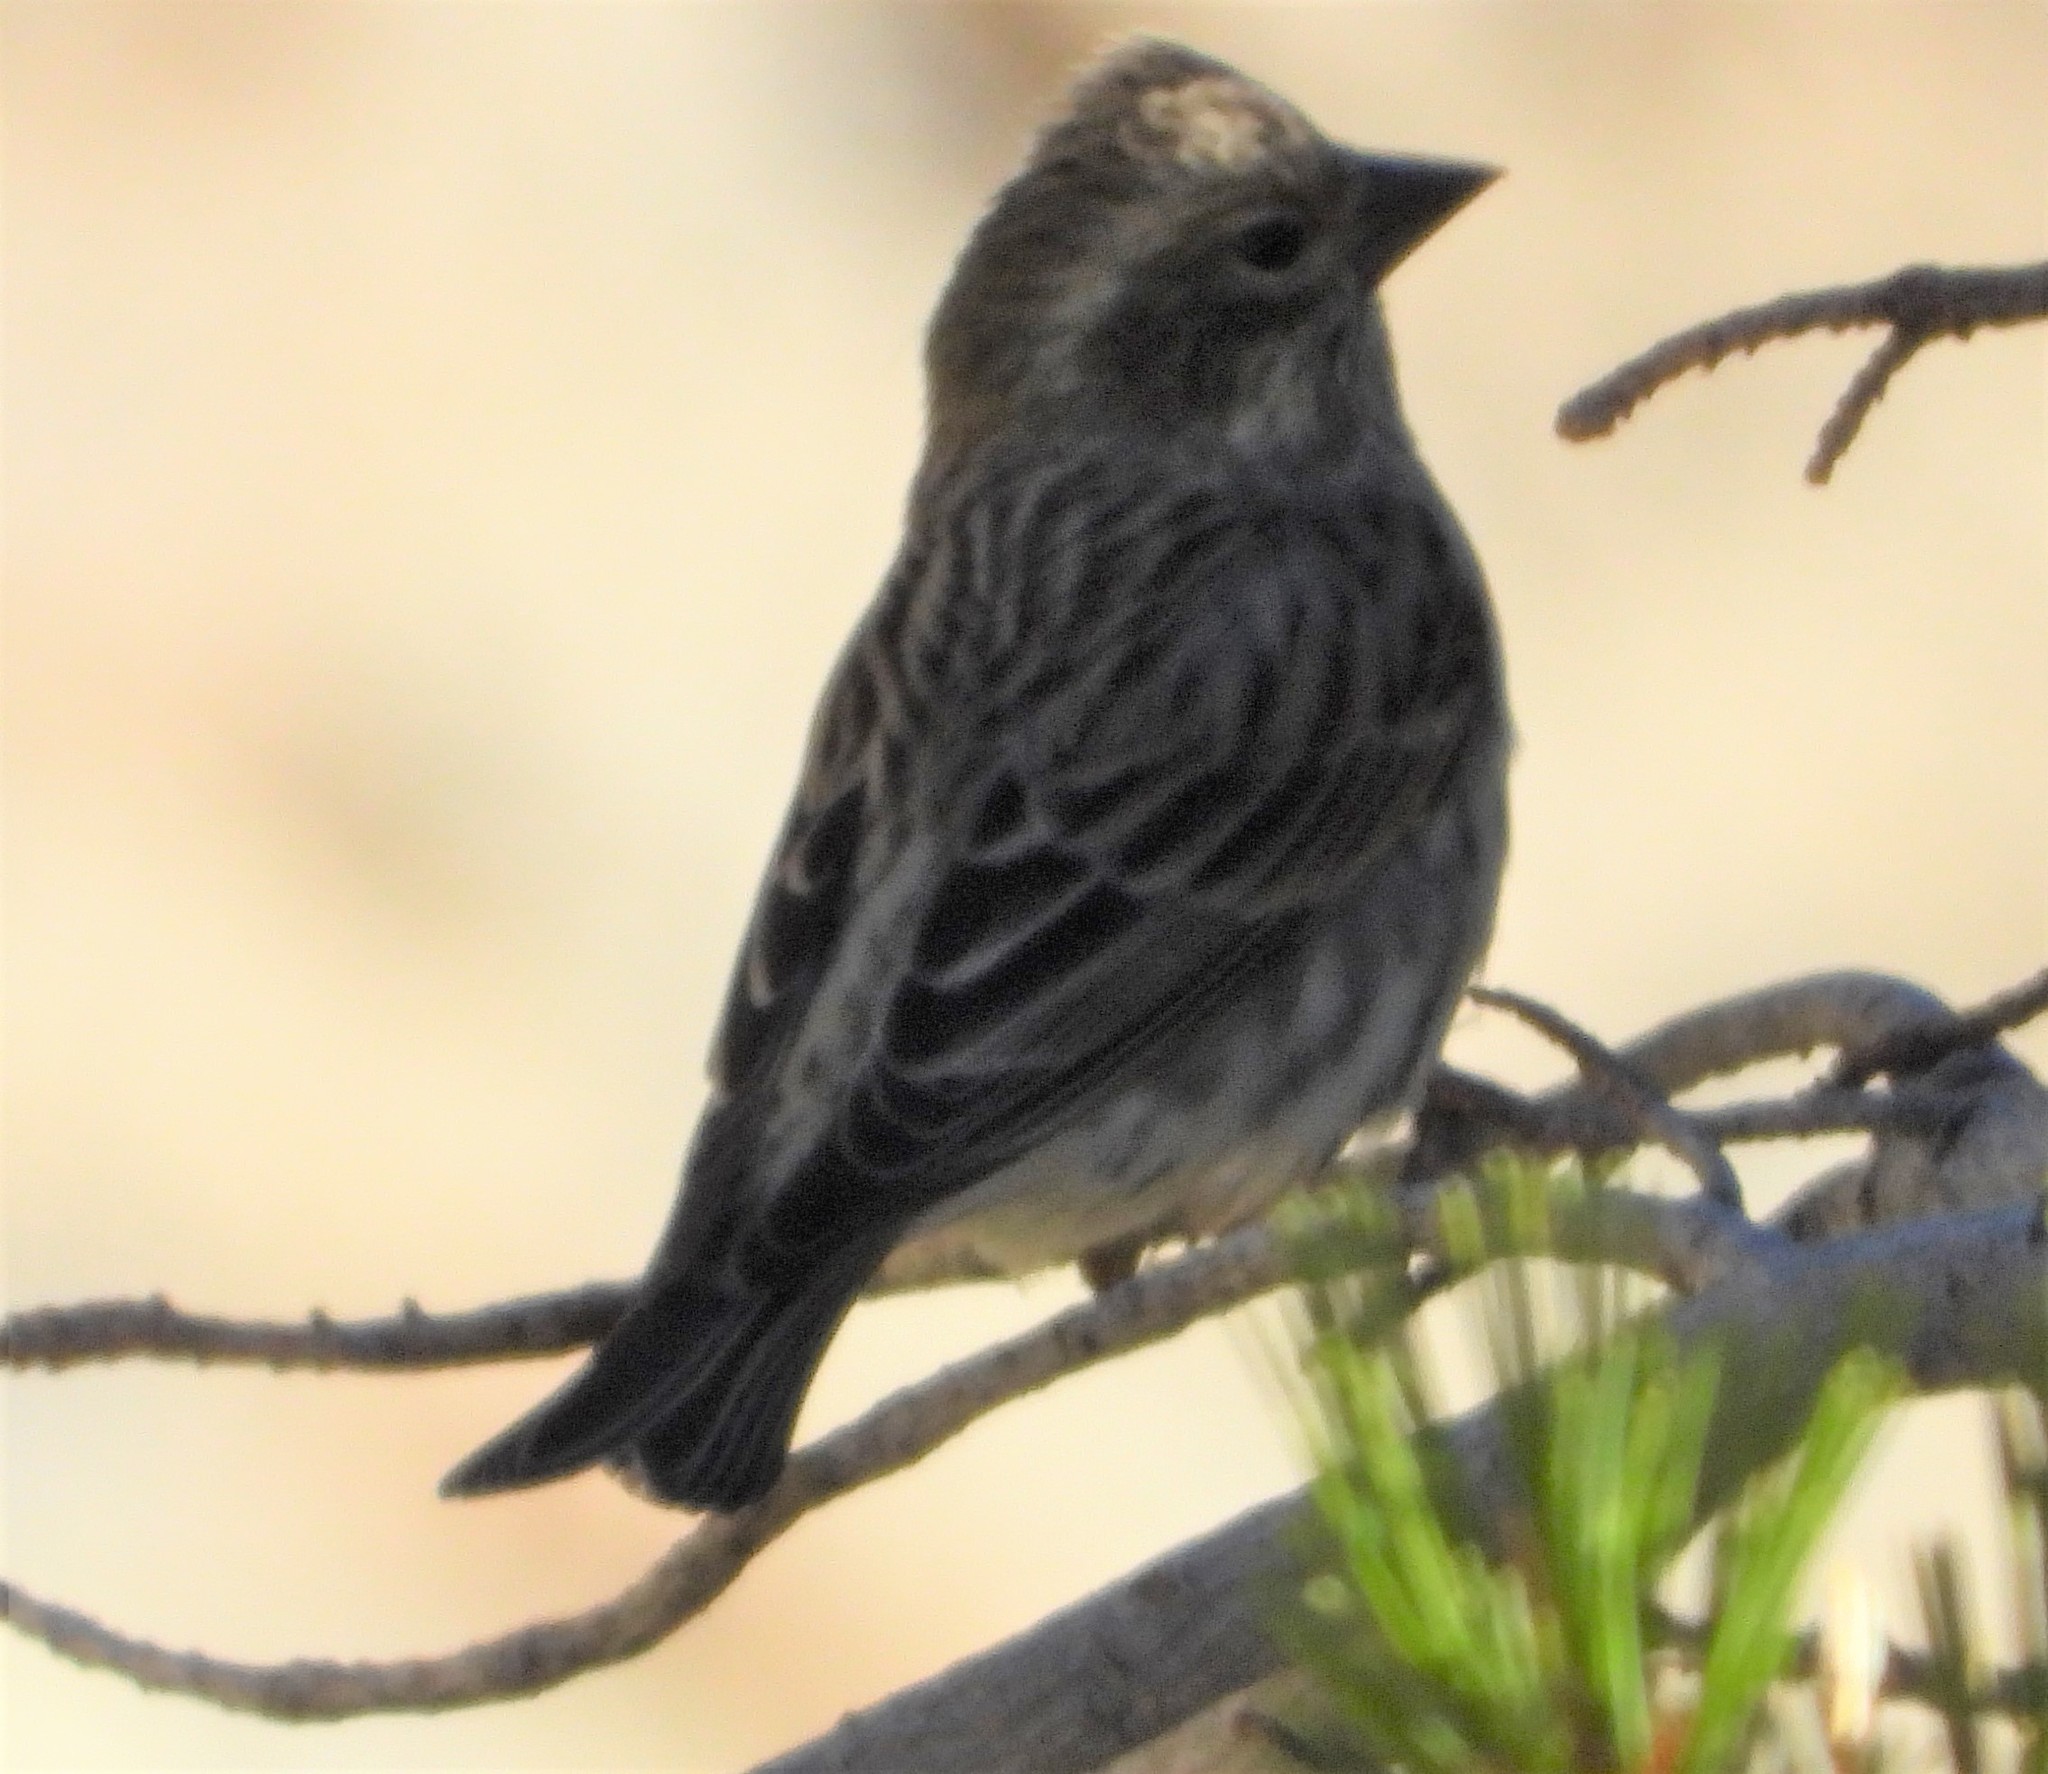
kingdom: Animalia
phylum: Chordata
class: Aves
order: Passeriformes
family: Fringillidae
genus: Haemorhous
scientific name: Haemorhous cassinii
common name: Cassin's finch
